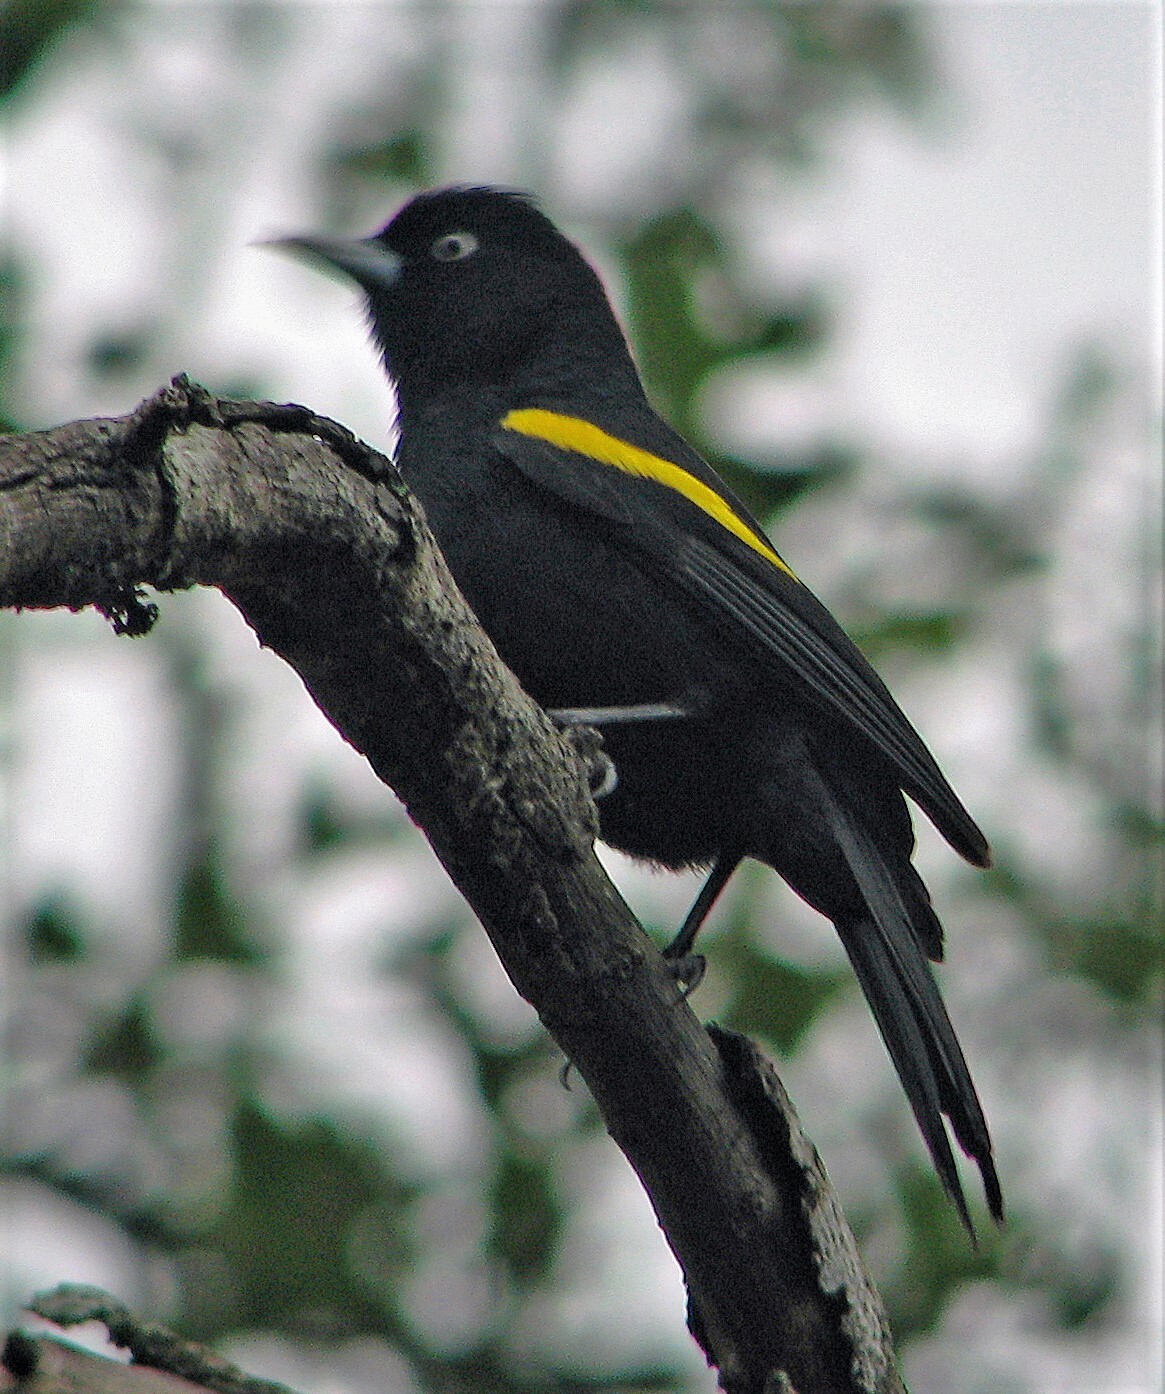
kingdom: Animalia
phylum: Chordata
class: Aves
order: Passeriformes
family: Icteridae
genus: Cacicus
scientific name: Cacicus chrysopterus
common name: Golden-winged cacique
